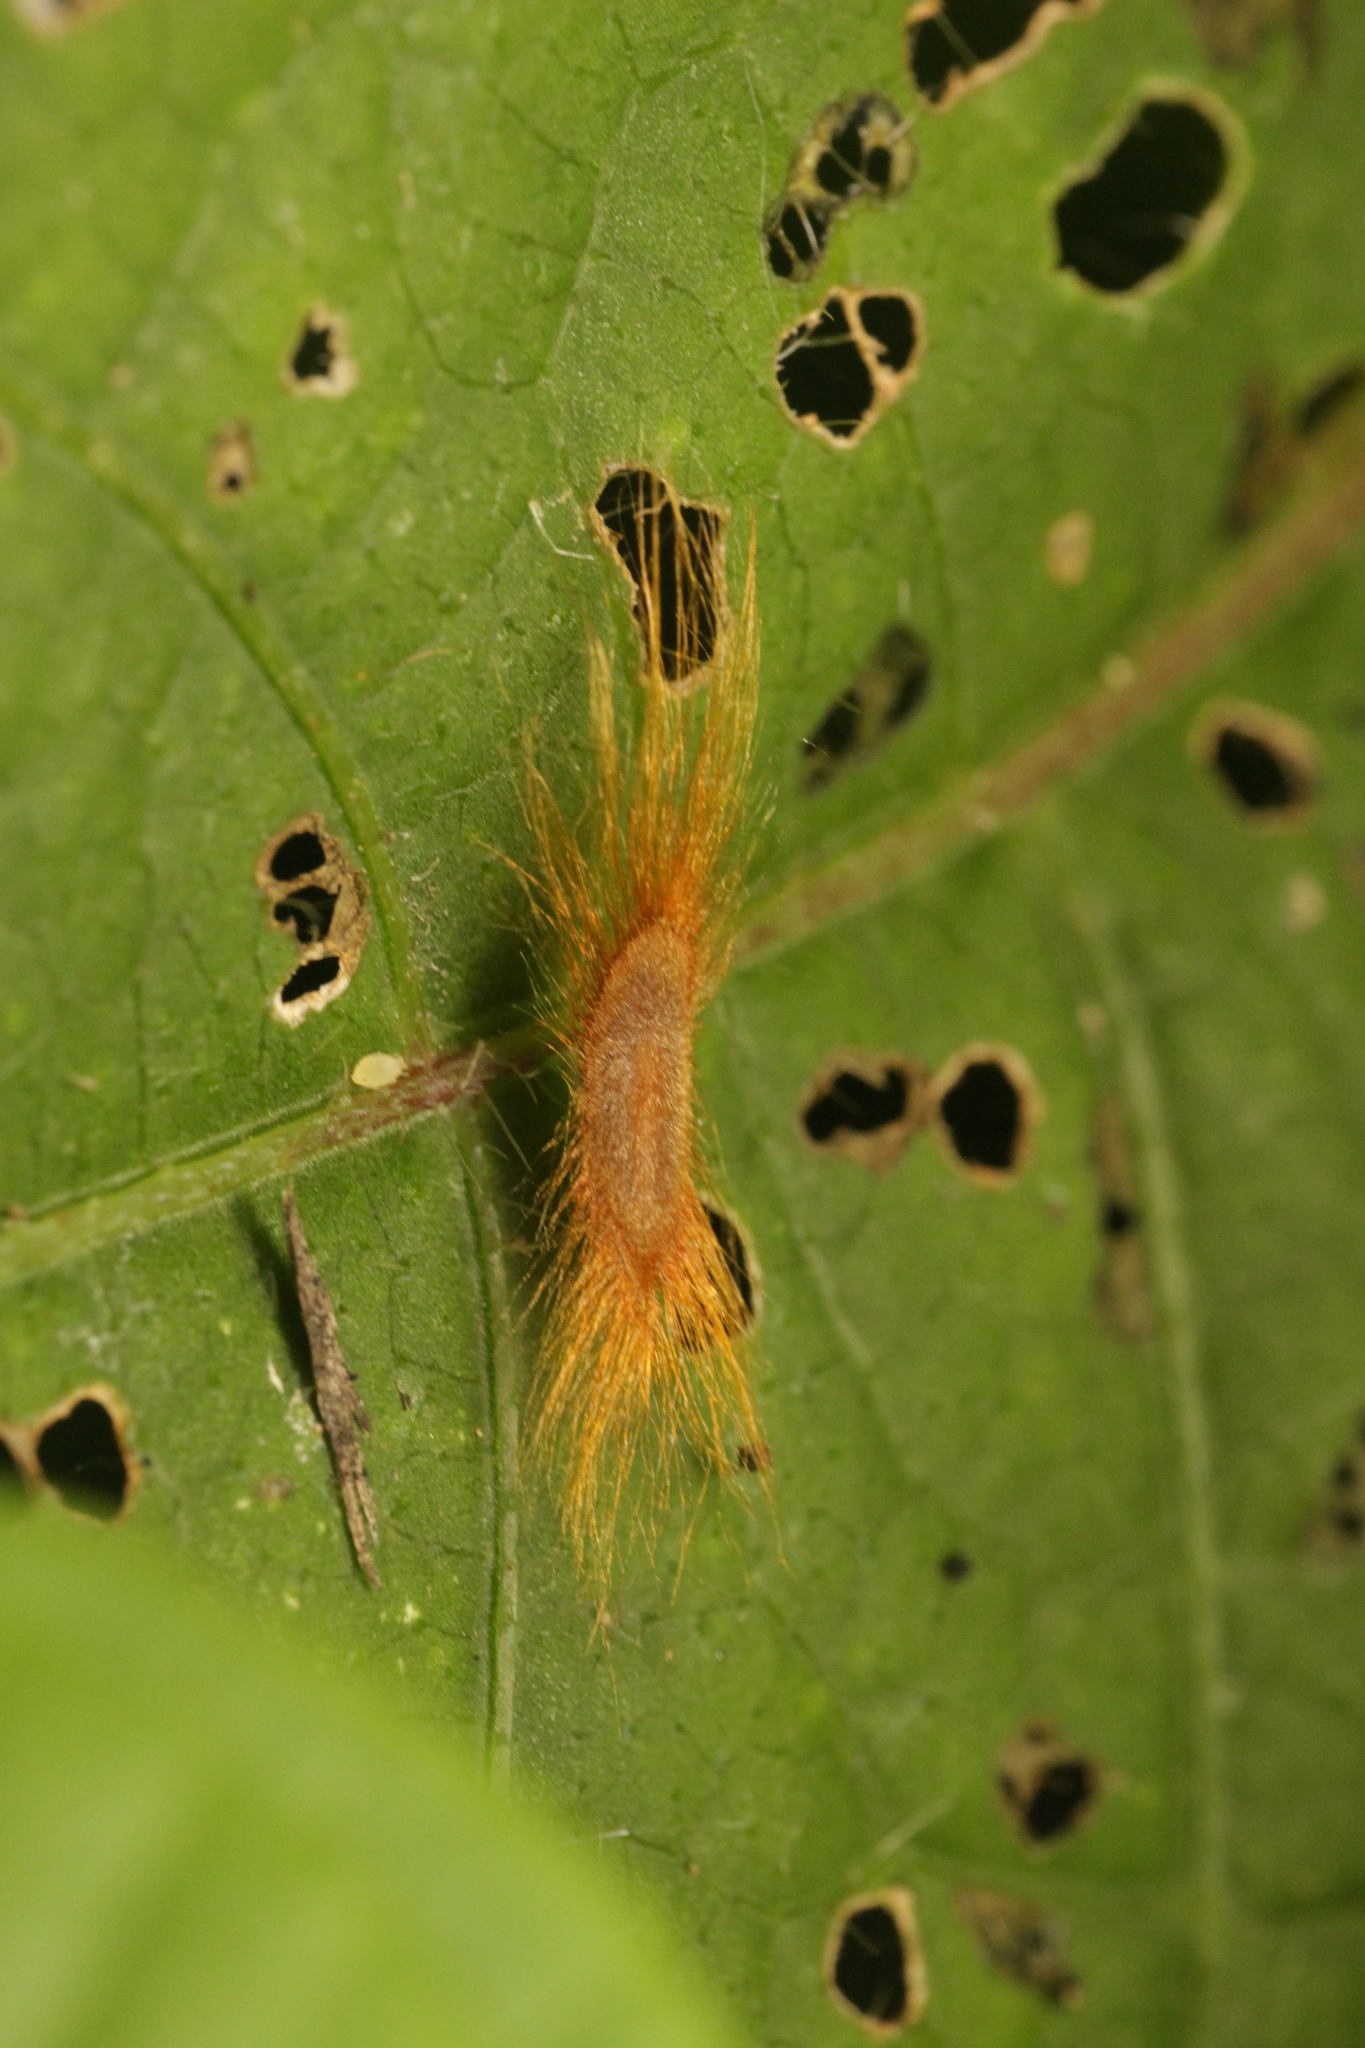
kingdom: Plantae
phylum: Tracheophyta
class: Magnoliopsida
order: Gentianales
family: Apocynaceae
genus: Alstonia
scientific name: Alstonia macrophylla
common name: Deviltree
